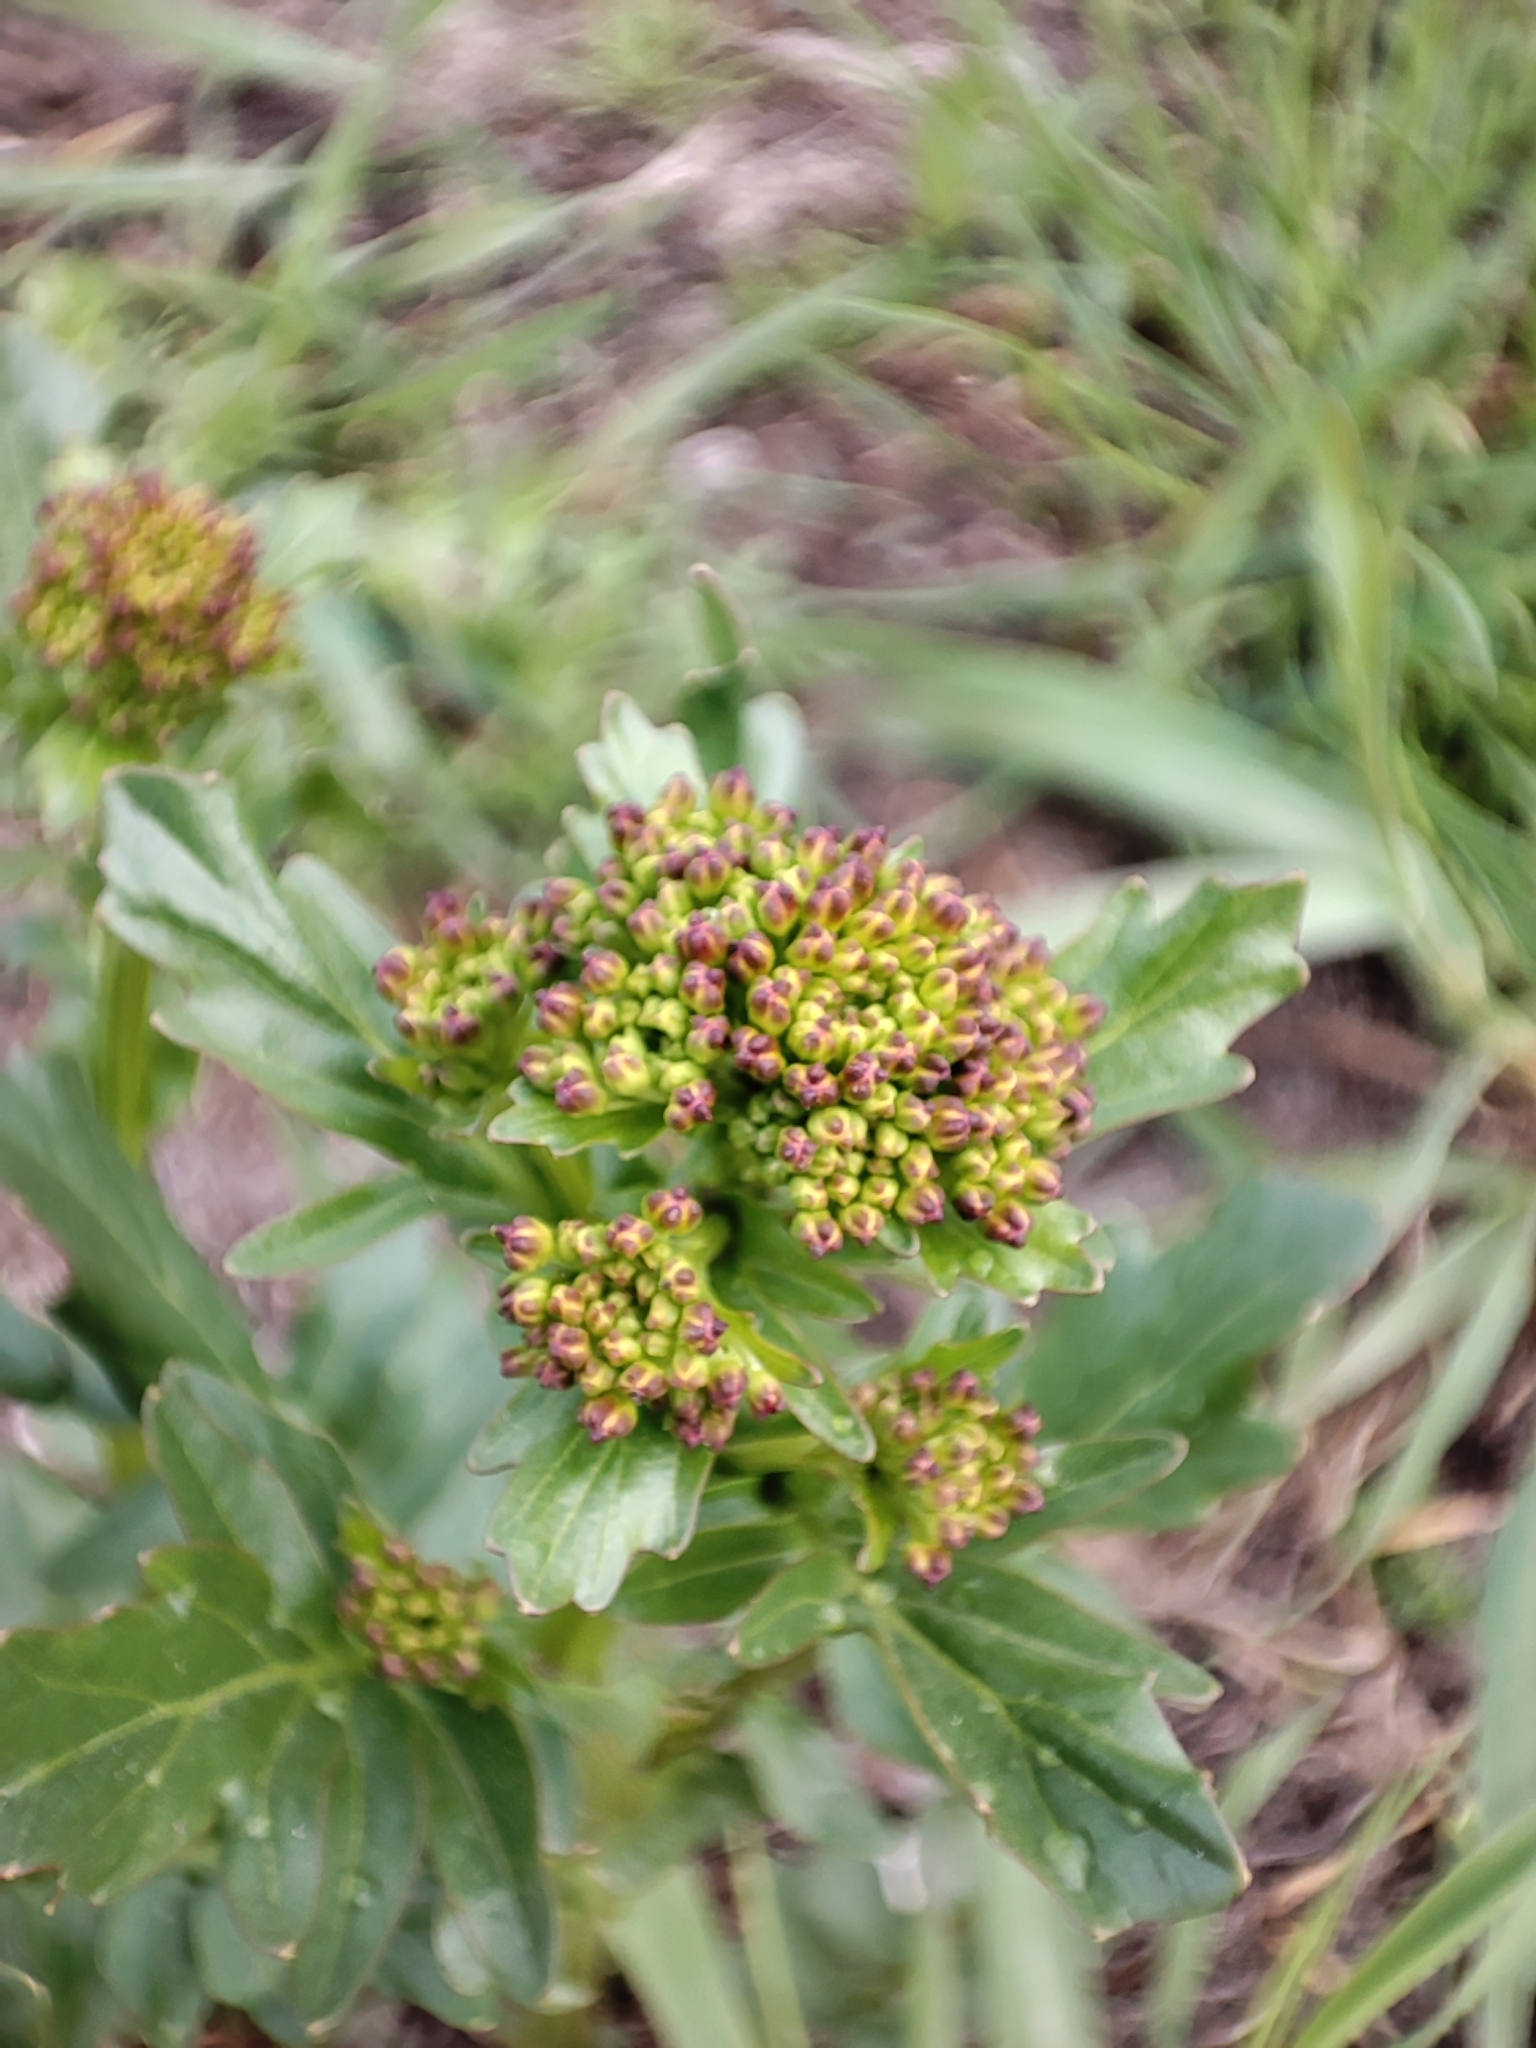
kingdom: Plantae
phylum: Tracheophyta
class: Magnoliopsida
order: Brassicales
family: Brassicaceae
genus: Barbarea
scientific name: Barbarea vulgaris
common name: Cressy-greens
